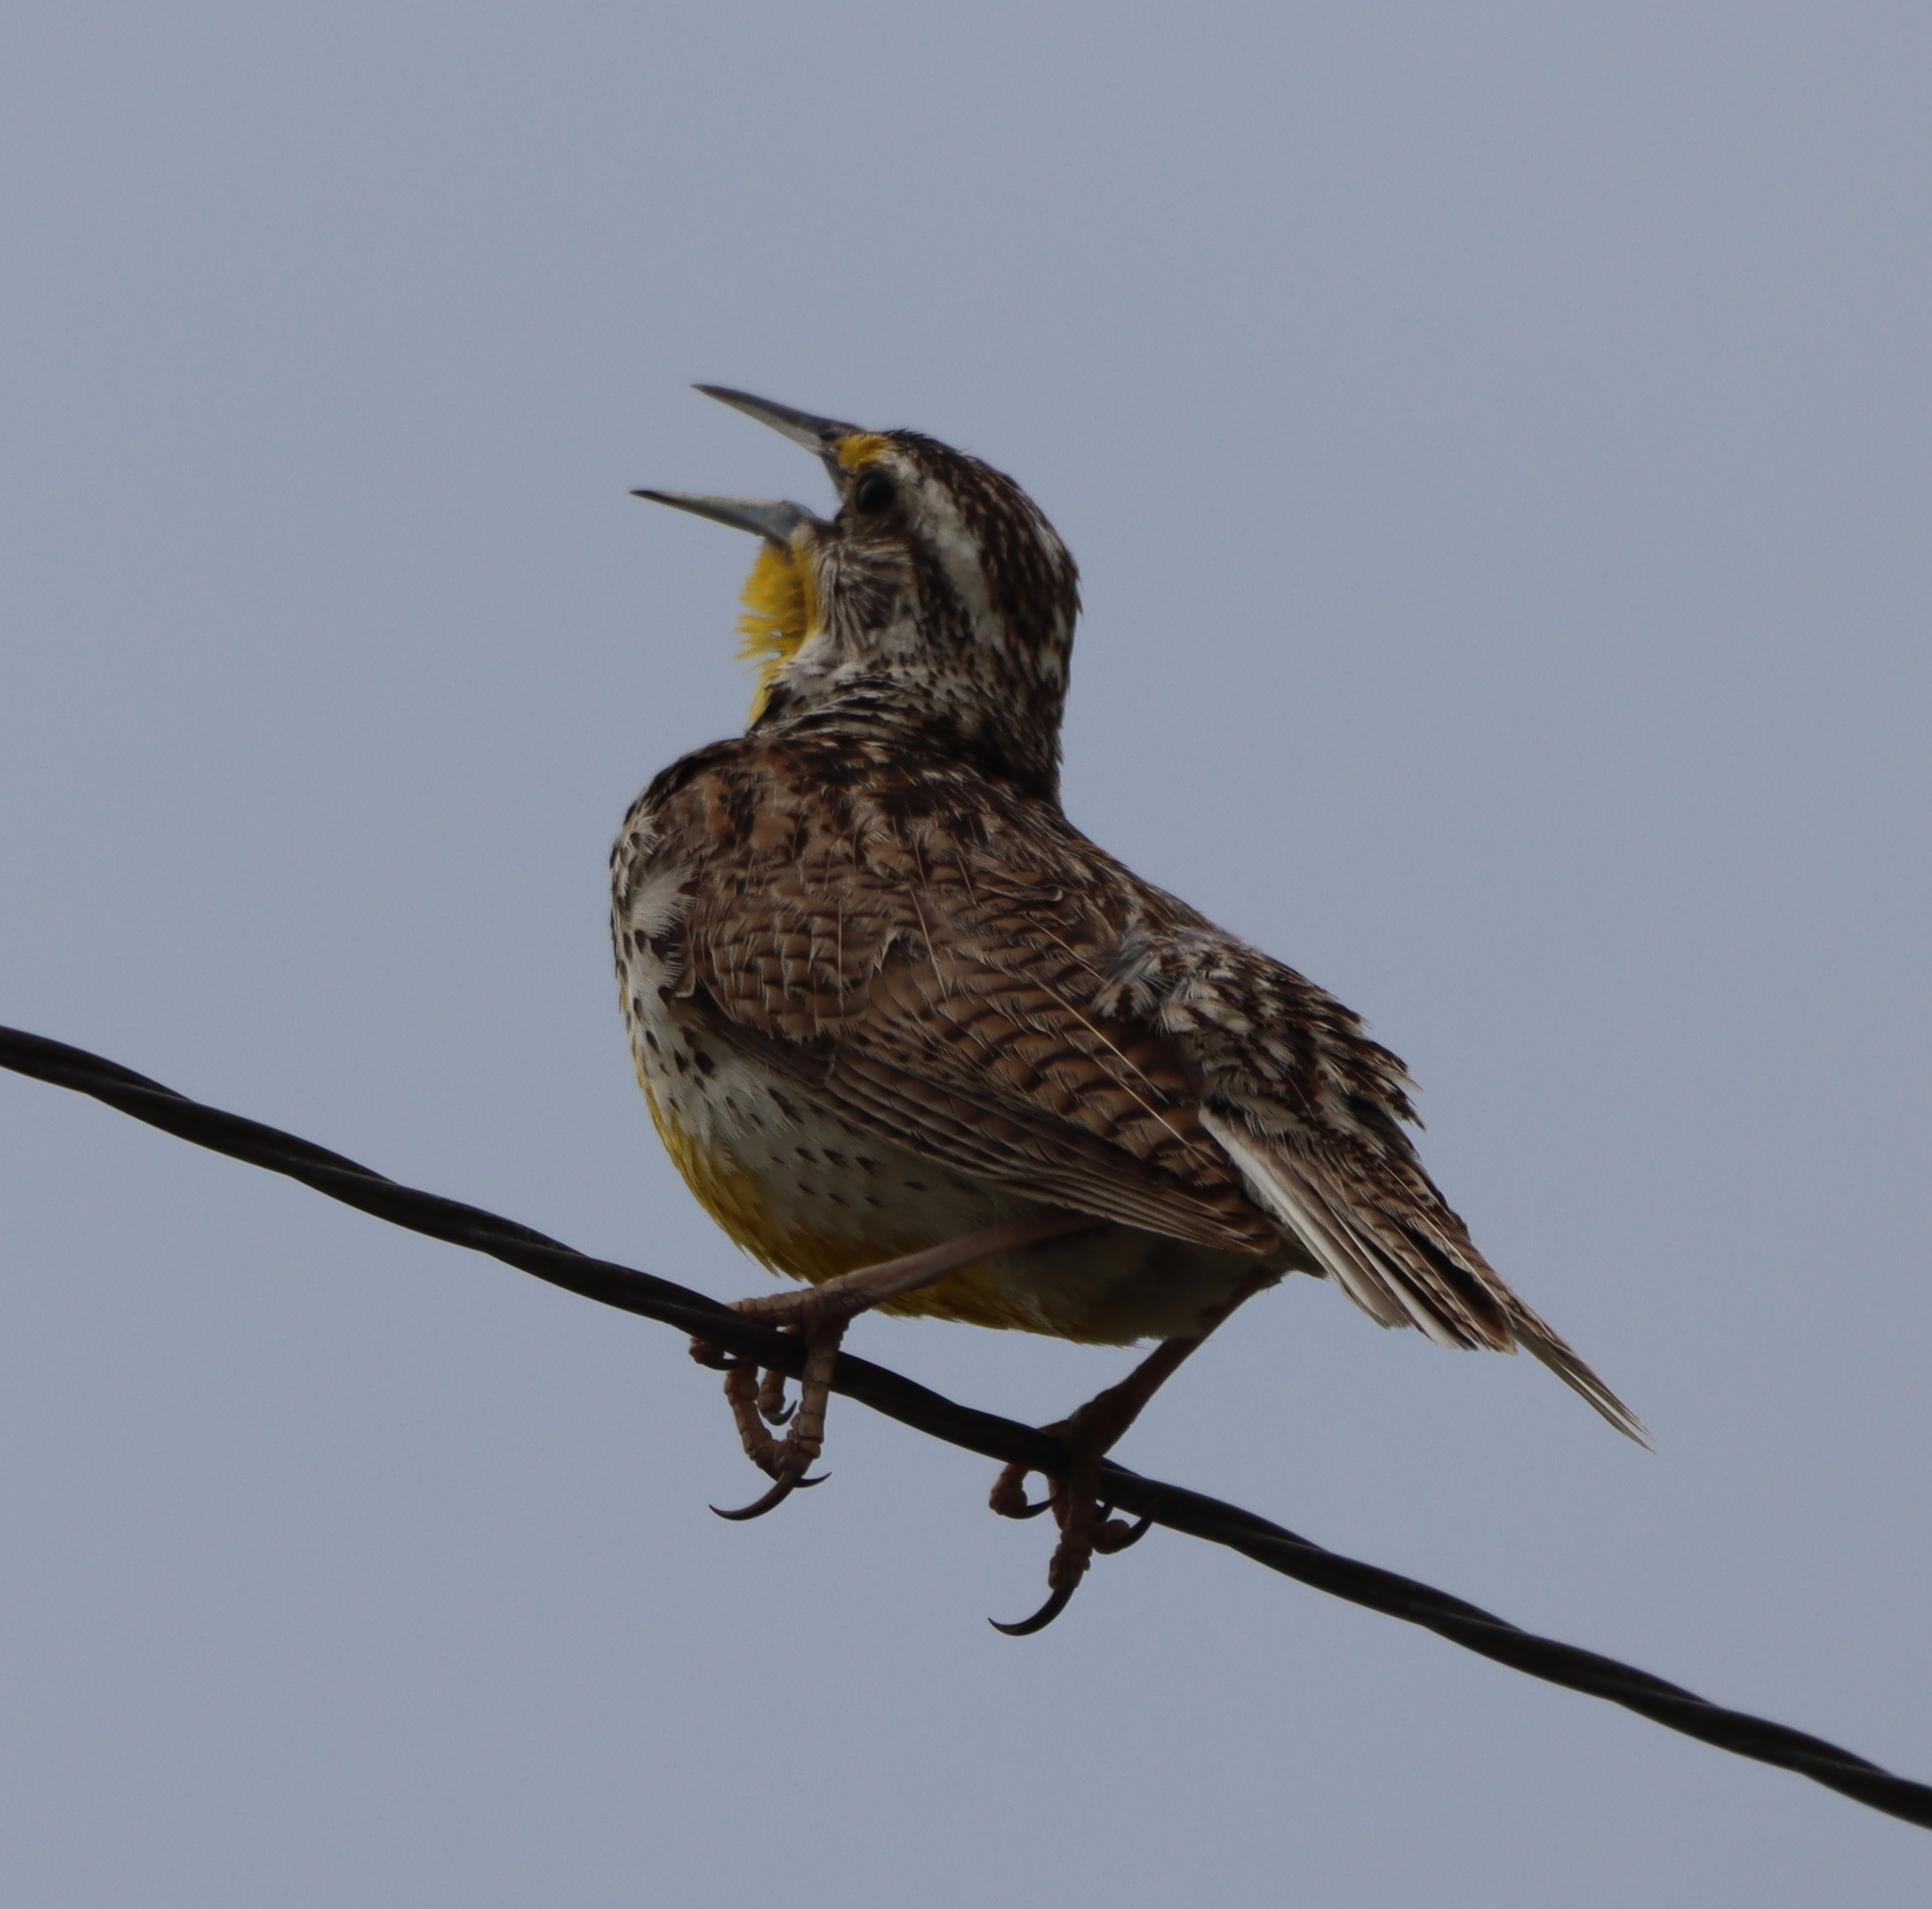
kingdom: Animalia
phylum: Chordata
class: Aves
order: Passeriformes
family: Icteridae
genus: Sturnella
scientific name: Sturnella neglecta
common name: Western meadowlark
